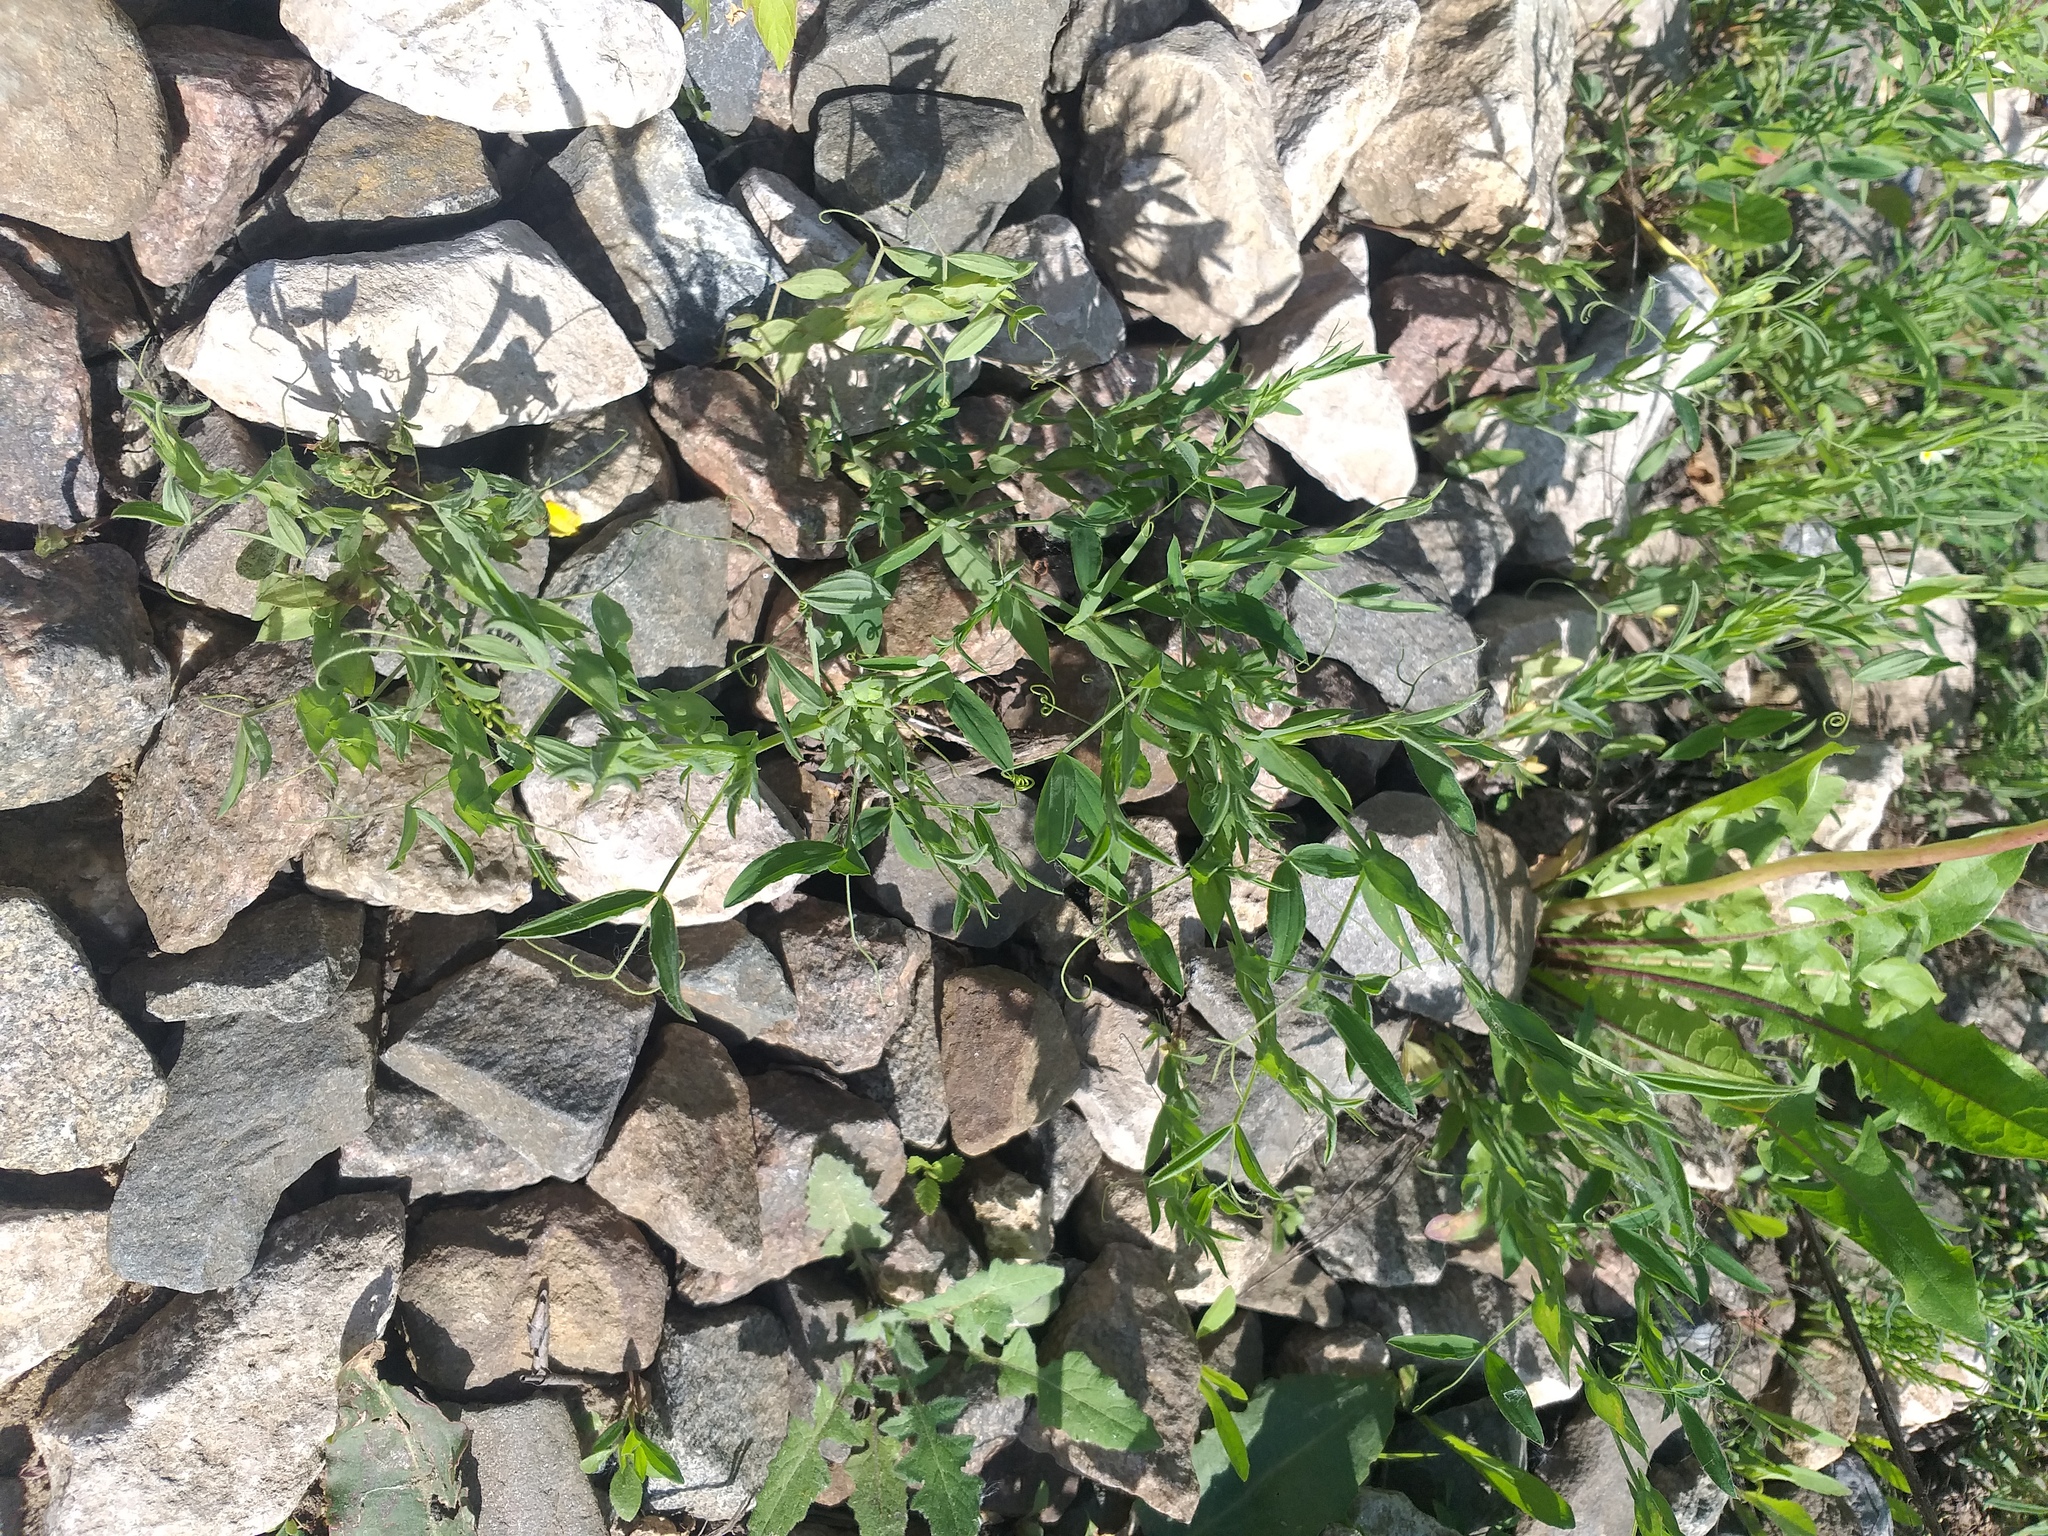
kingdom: Plantae
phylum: Tracheophyta
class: Magnoliopsida
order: Fabales
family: Fabaceae
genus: Lathyrus
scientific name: Lathyrus pratensis
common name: Meadow vetchling
